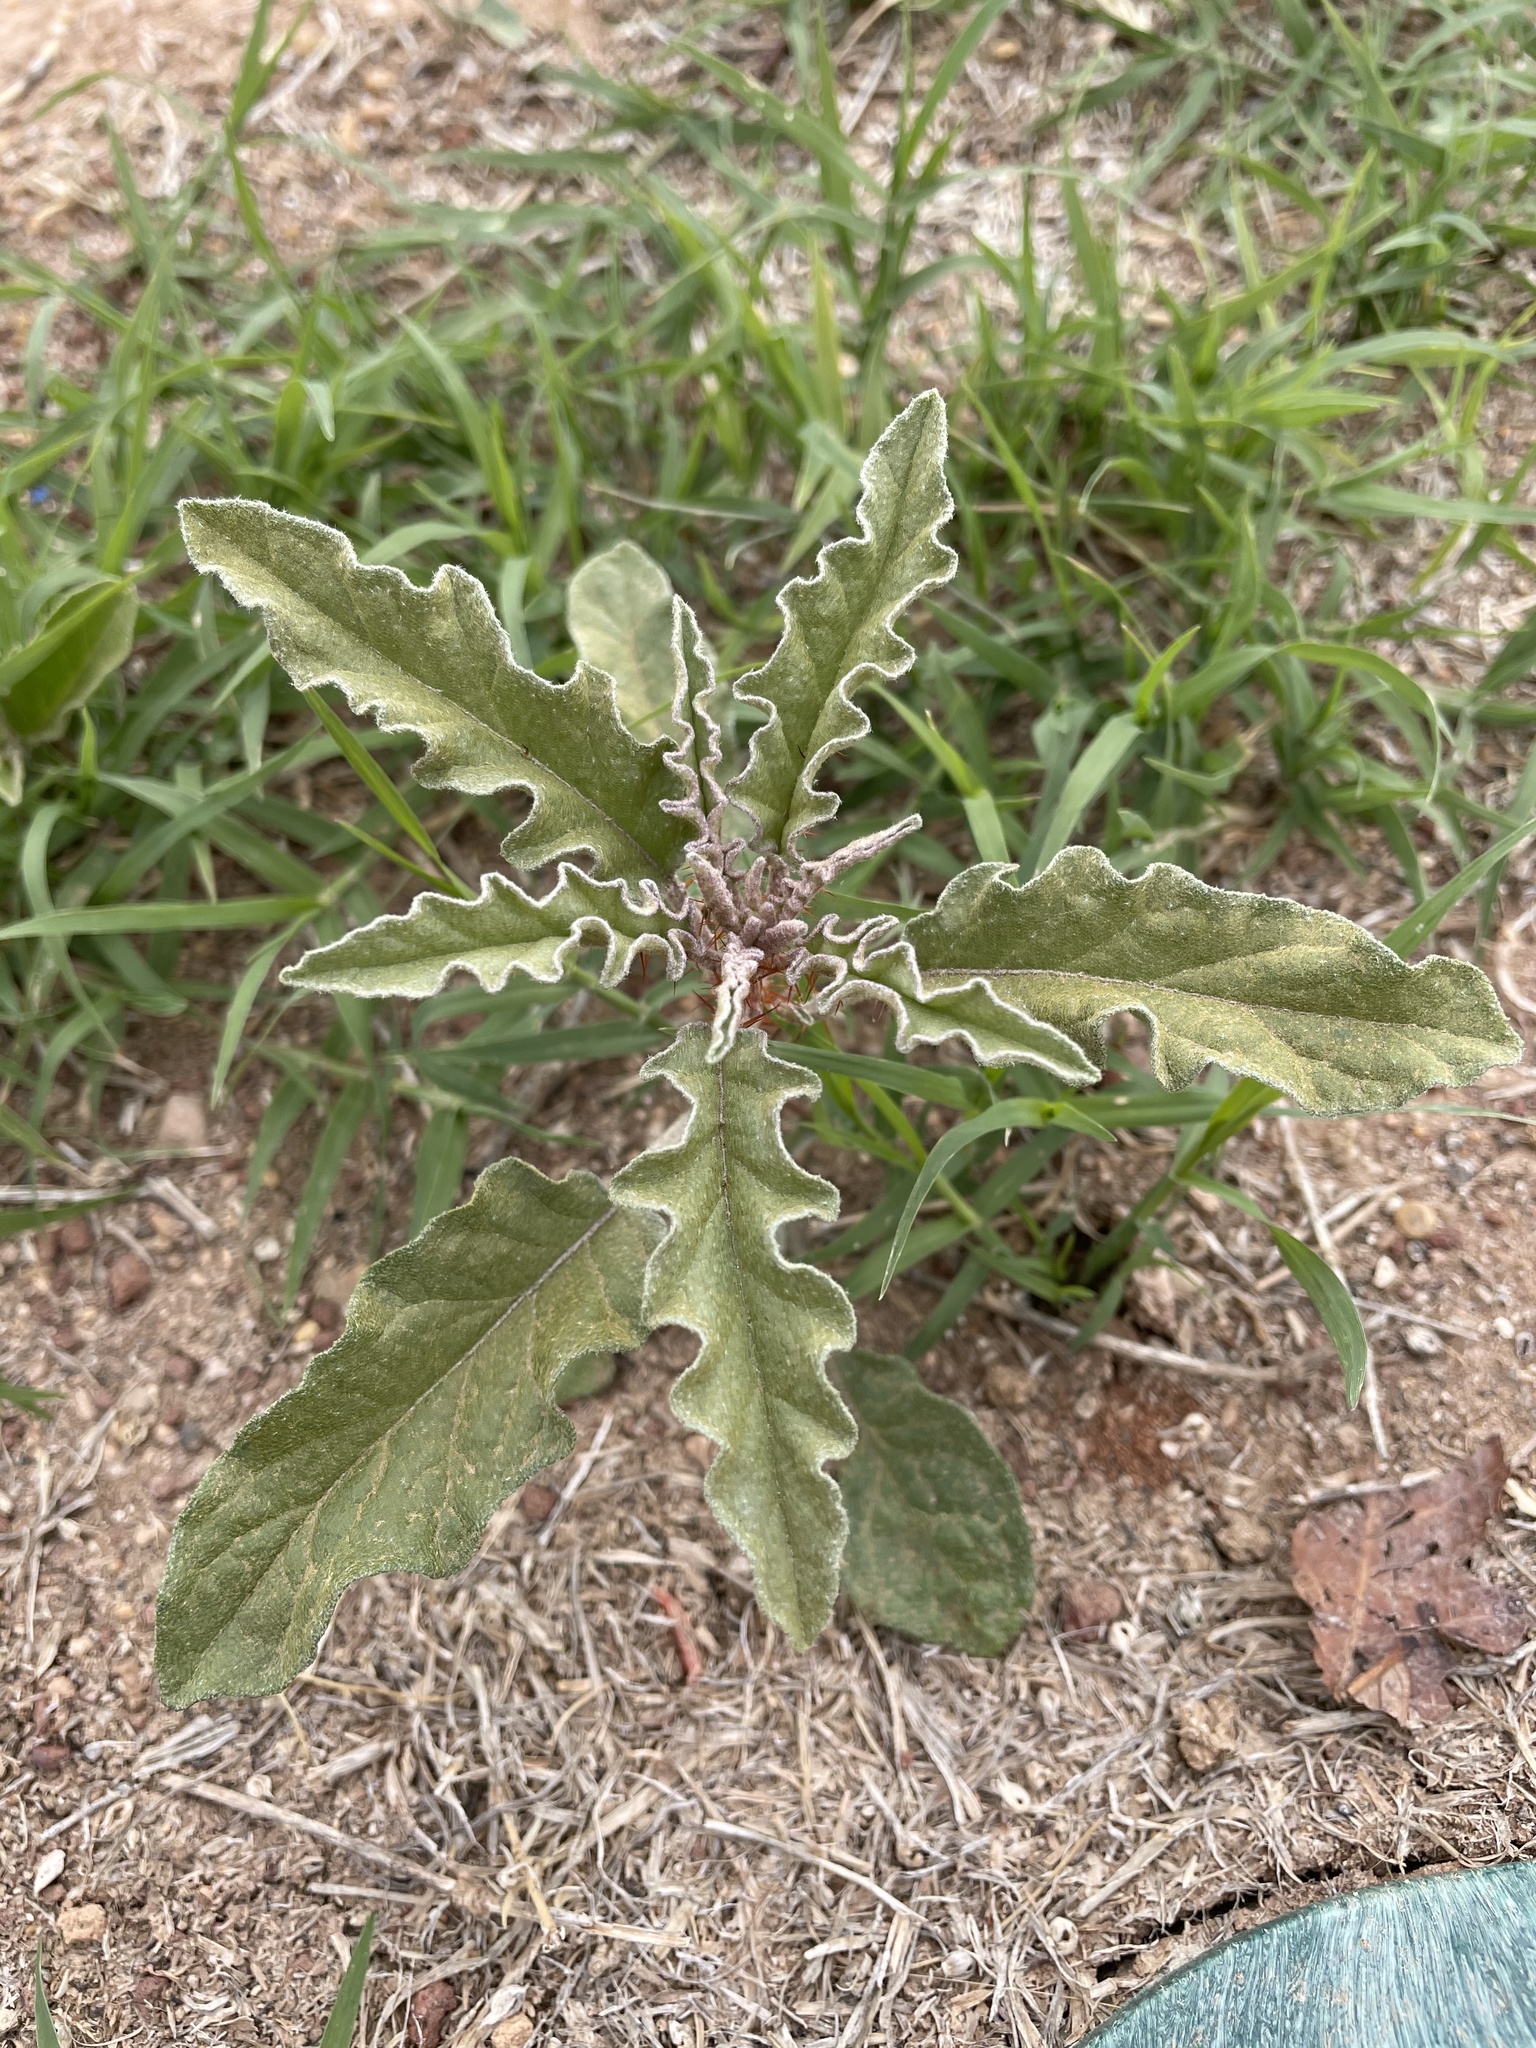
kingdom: Plantae
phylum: Tracheophyta
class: Magnoliopsida
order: Solanales
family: Solanaceae
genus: Solanum
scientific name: Solanum elaeagnifolium
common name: Silverleaf nightshade
